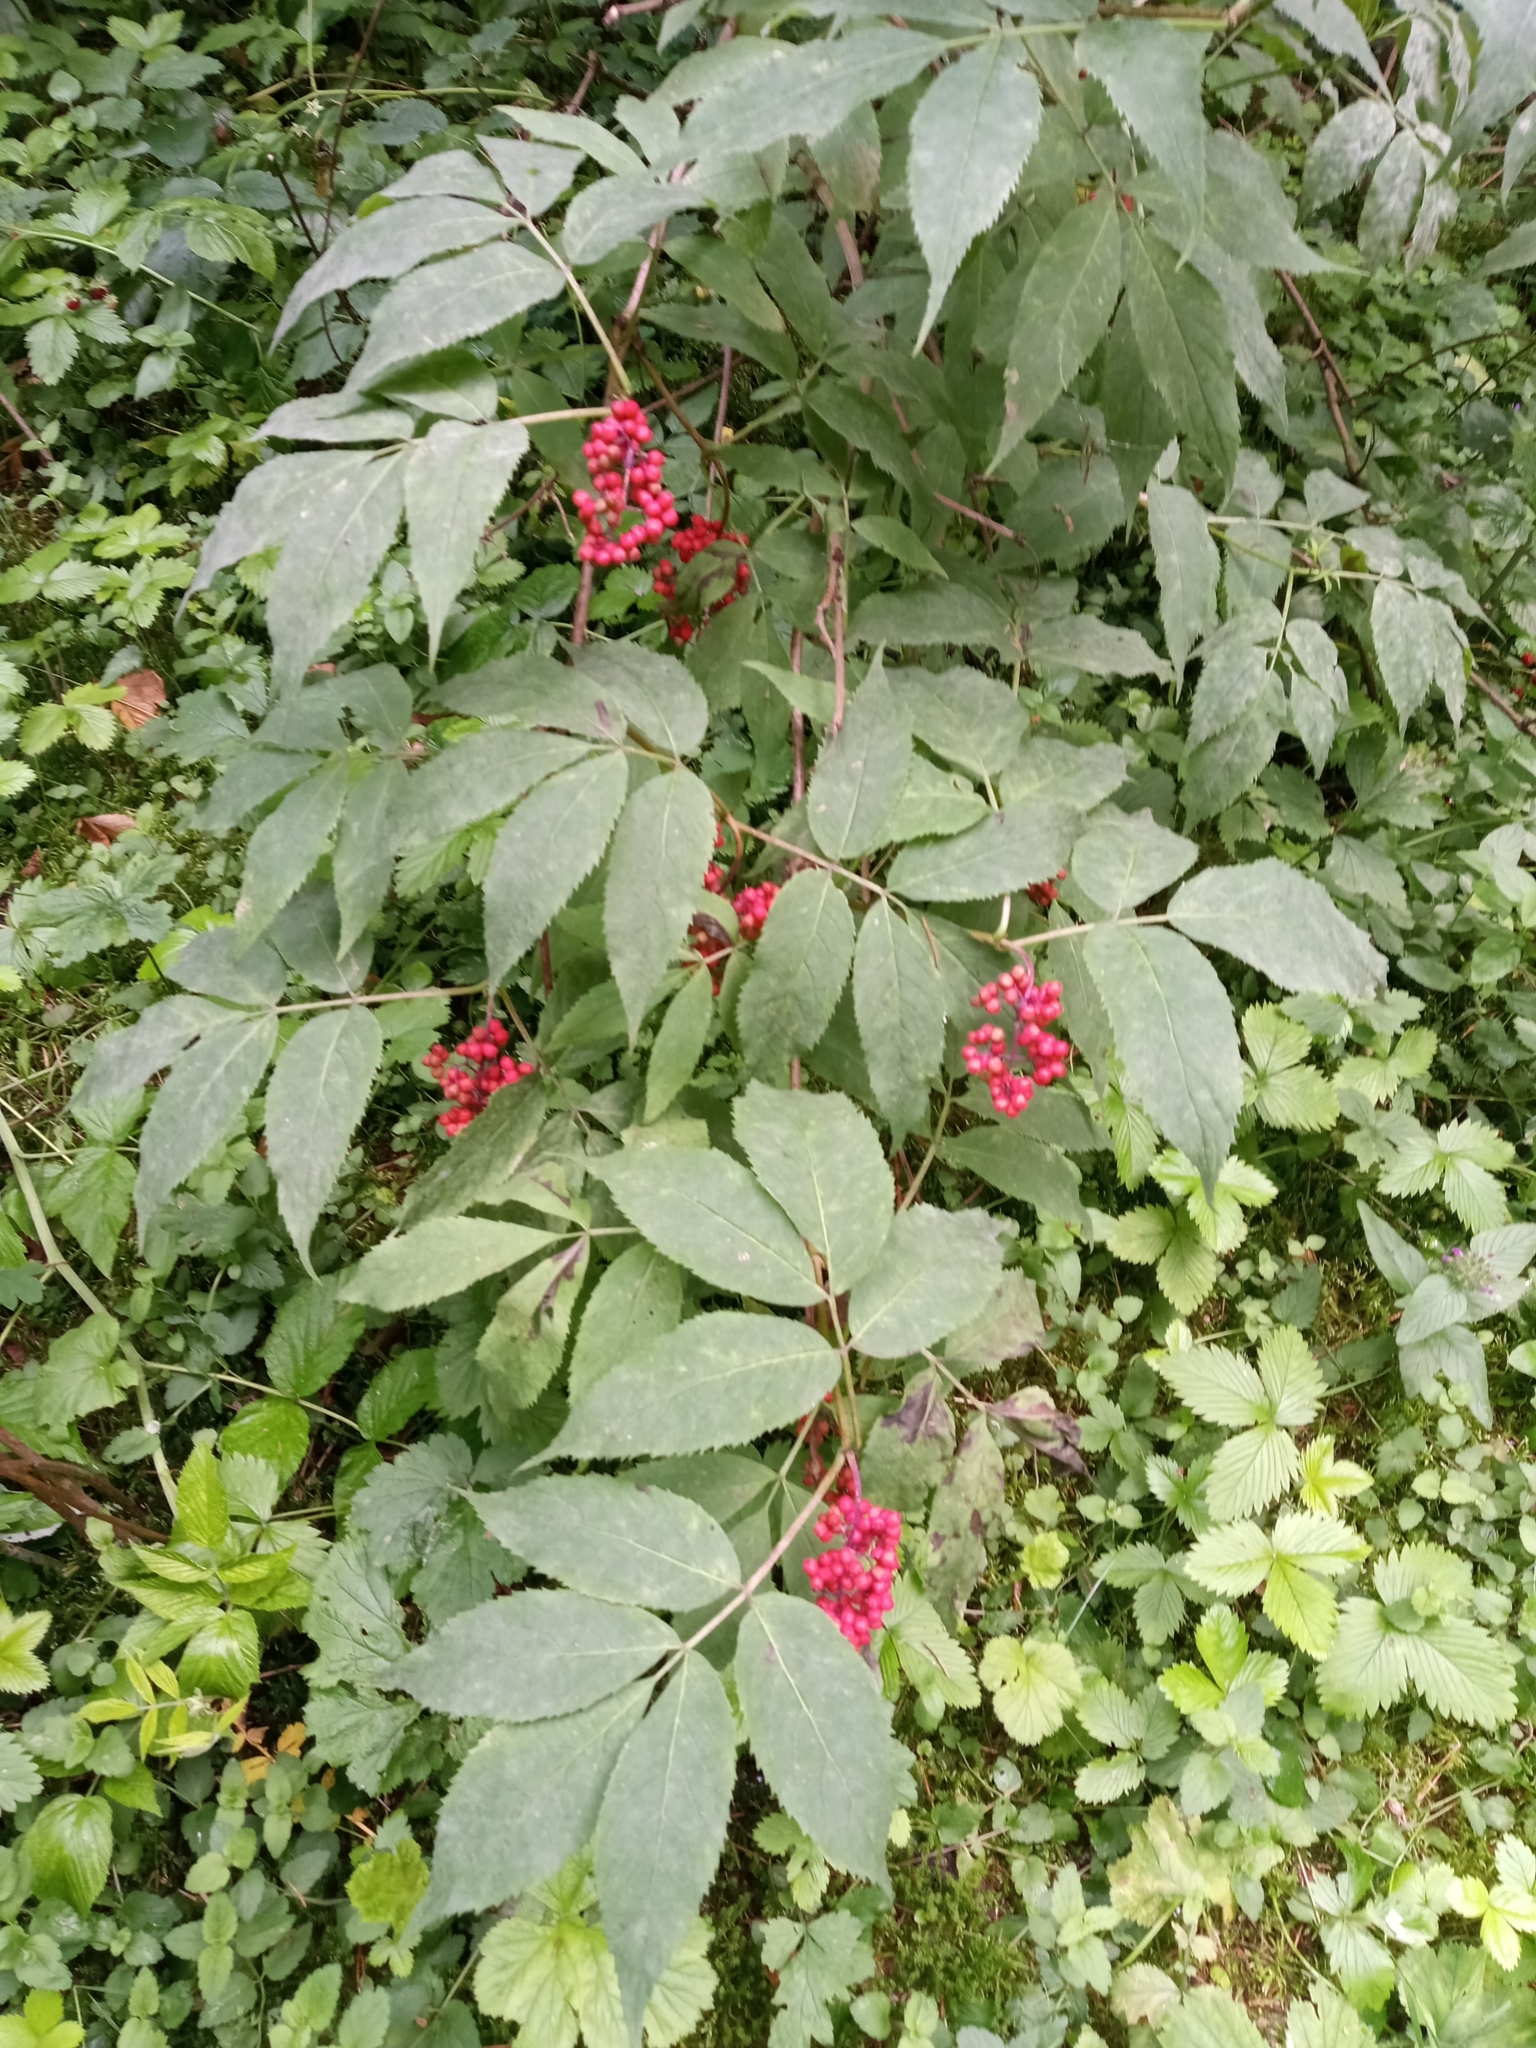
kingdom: Plantae
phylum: Tracheophyta
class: Magnoliopsida
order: Dipsacales
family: Viburnaceae
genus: Sambucus
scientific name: Sambucus racemosa
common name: Red-berried elder
